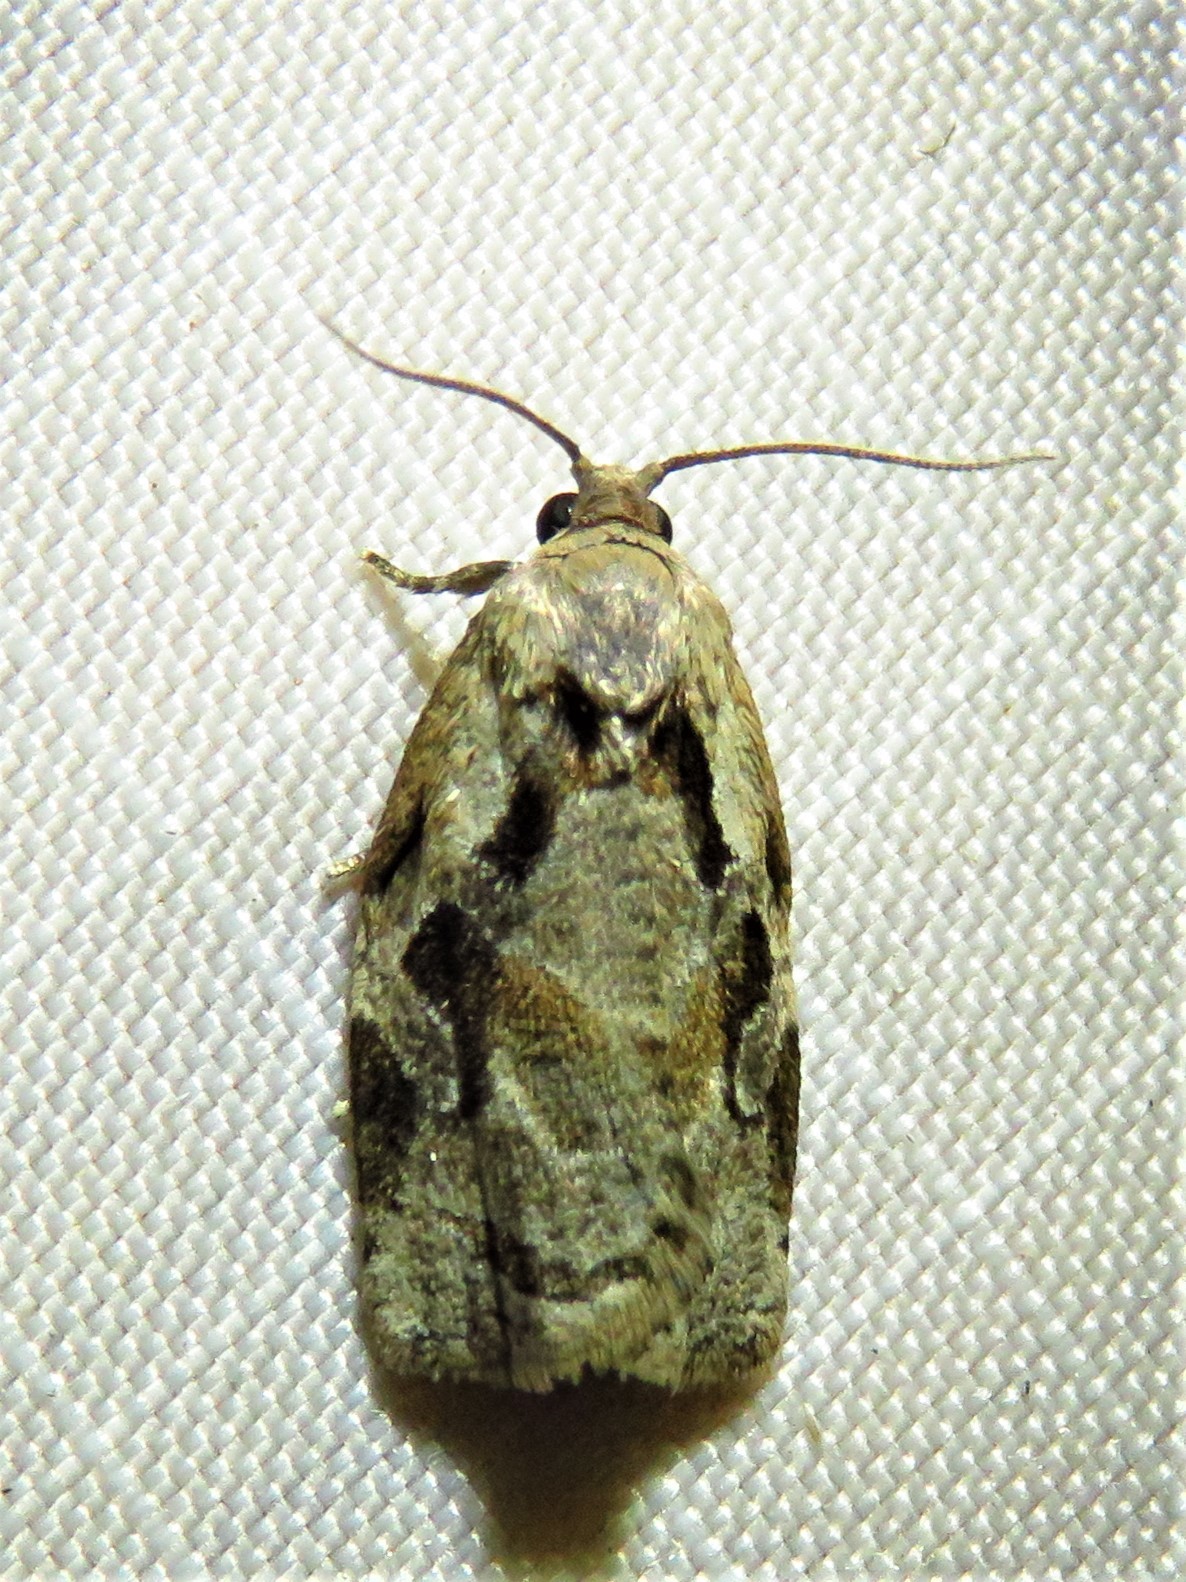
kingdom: Animalia
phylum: Arthropoda
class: Insecta
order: Lepidoptera
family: Tortricidae
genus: Archips
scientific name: Archips grisea
